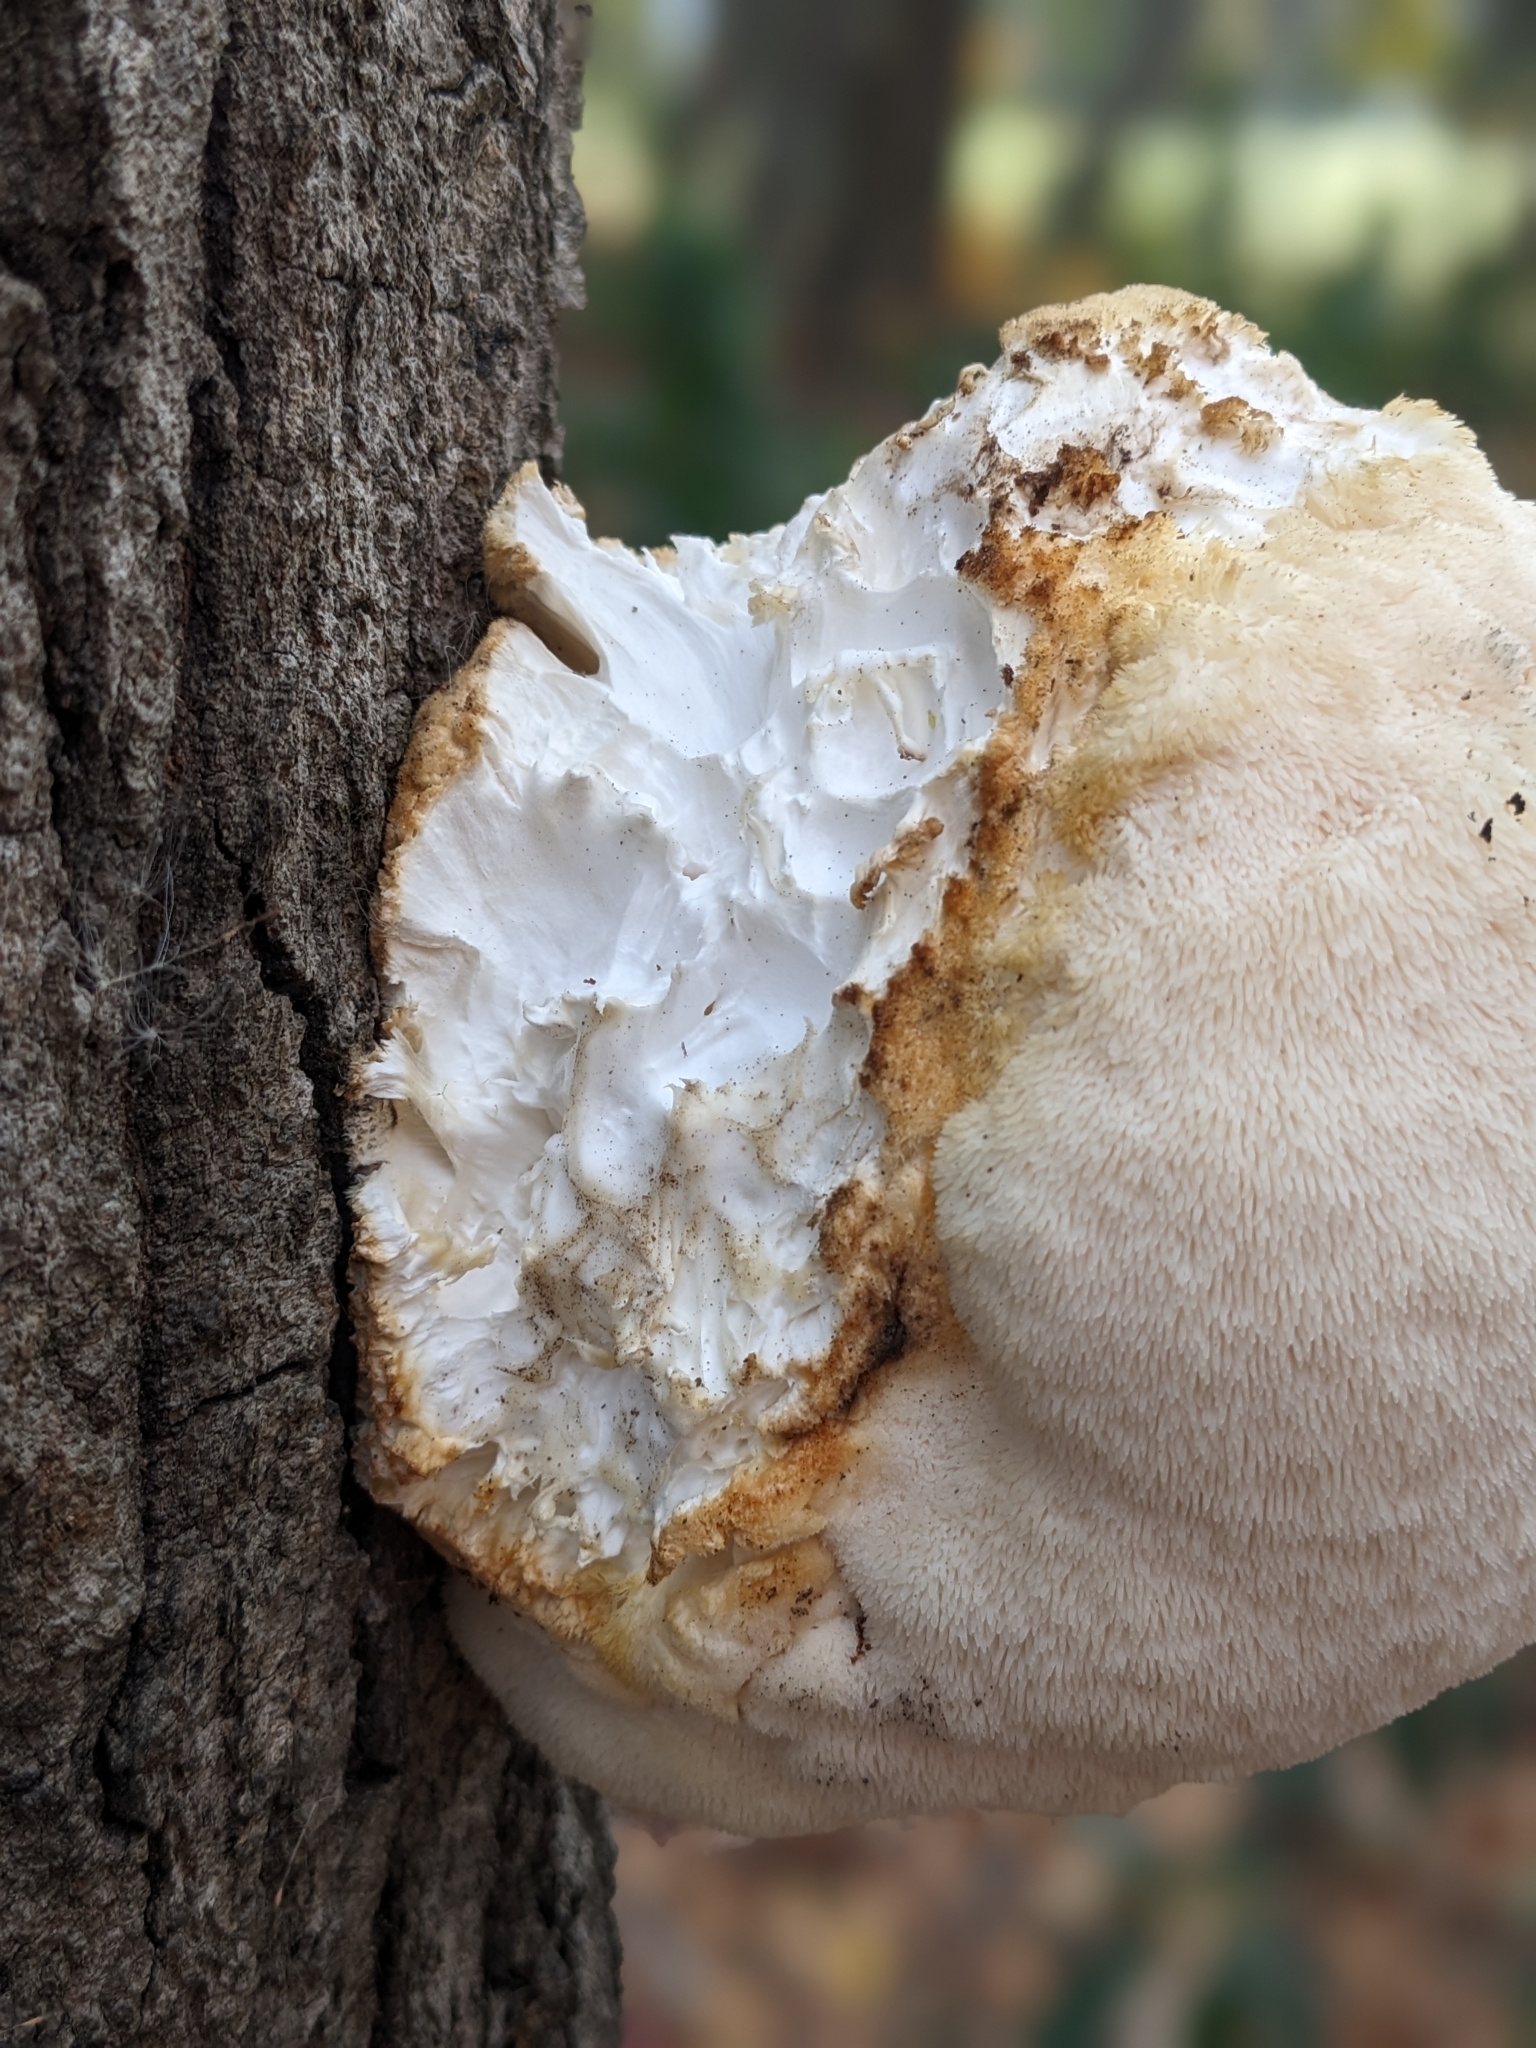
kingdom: Fungi
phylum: Basidiomycota
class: Agaricomycetes
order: Russulales
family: Hericiaceae
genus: Hericium
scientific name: Hericium erinaceus
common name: Bearded tooth
